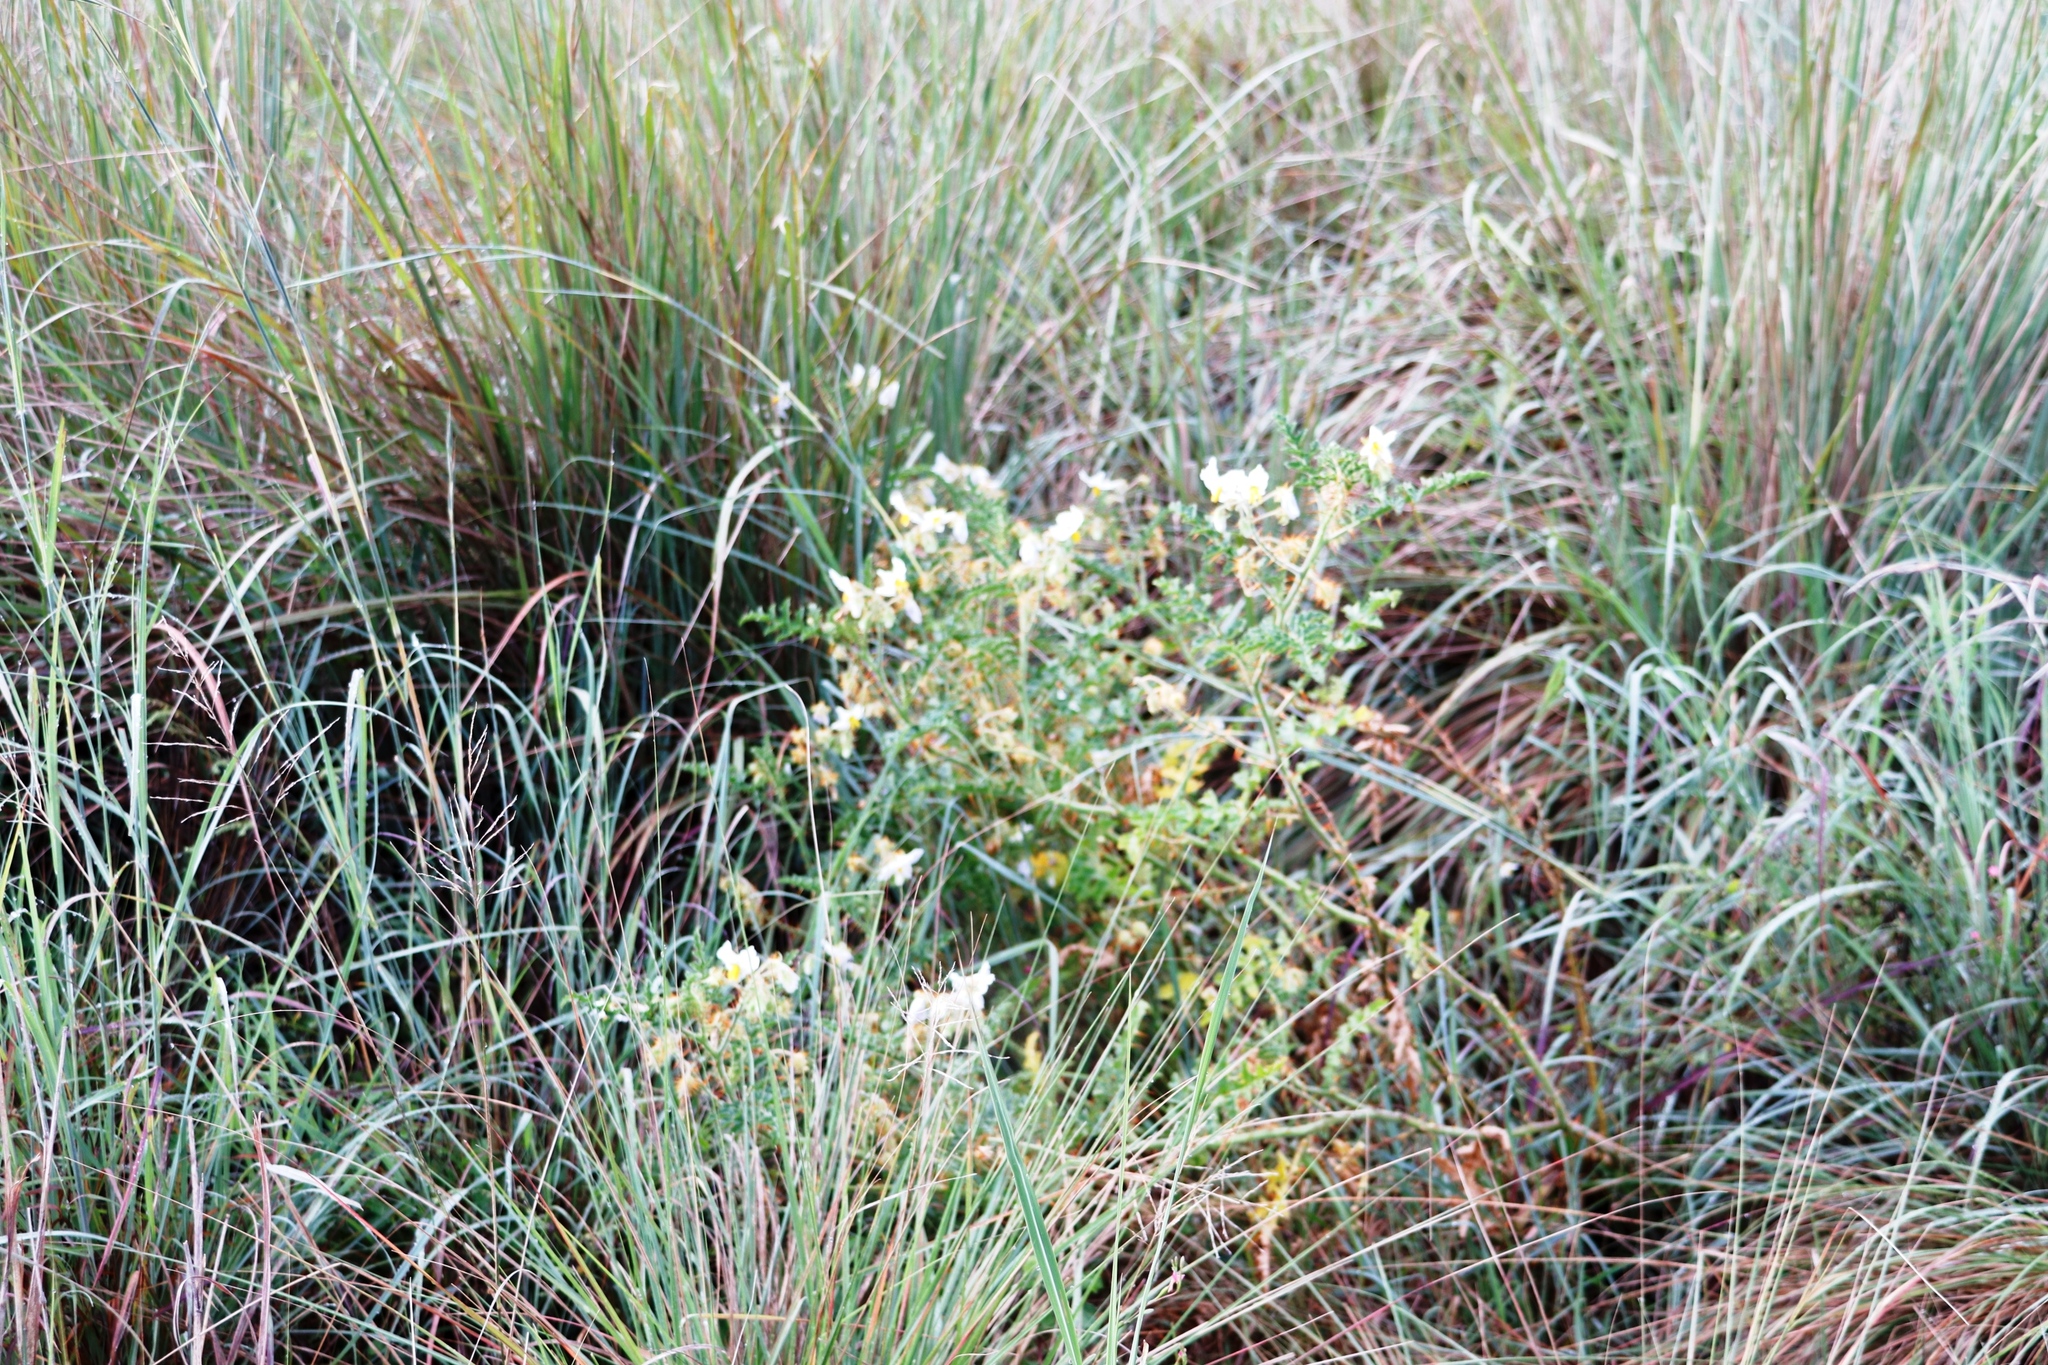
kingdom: Plantae
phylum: Tracheophyta
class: Magnoliopsida
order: Solanales
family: Solanaceae
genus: Solanum
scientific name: Solanum sisymbriifolium
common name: Red buffalo-bur
